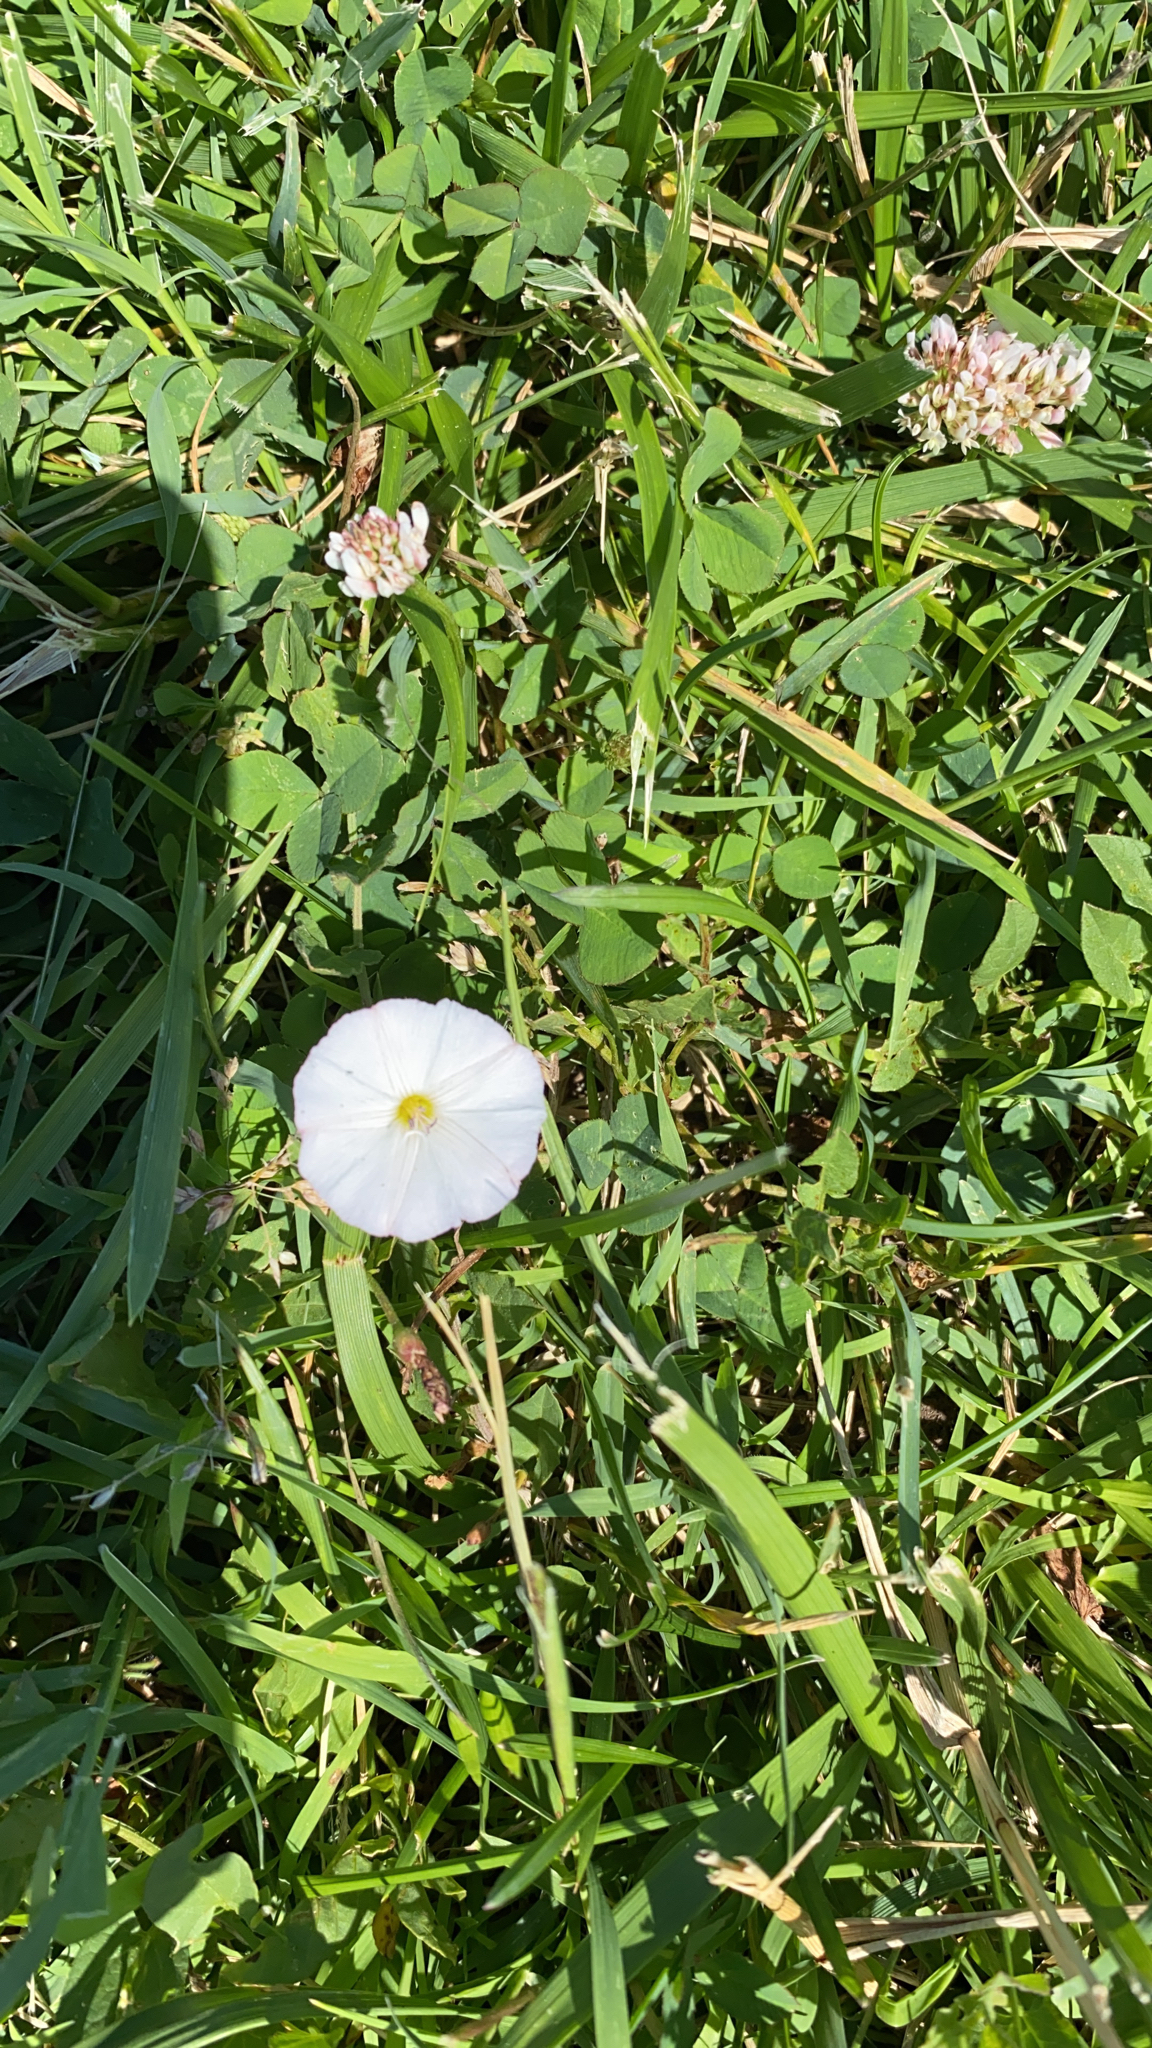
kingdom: Plantae
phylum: Tracheophyta
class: Magnoliopsida
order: Solanales
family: Convolvulaceae
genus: Convolvulus
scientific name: Convolvulus arvensis
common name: Field bindweed
